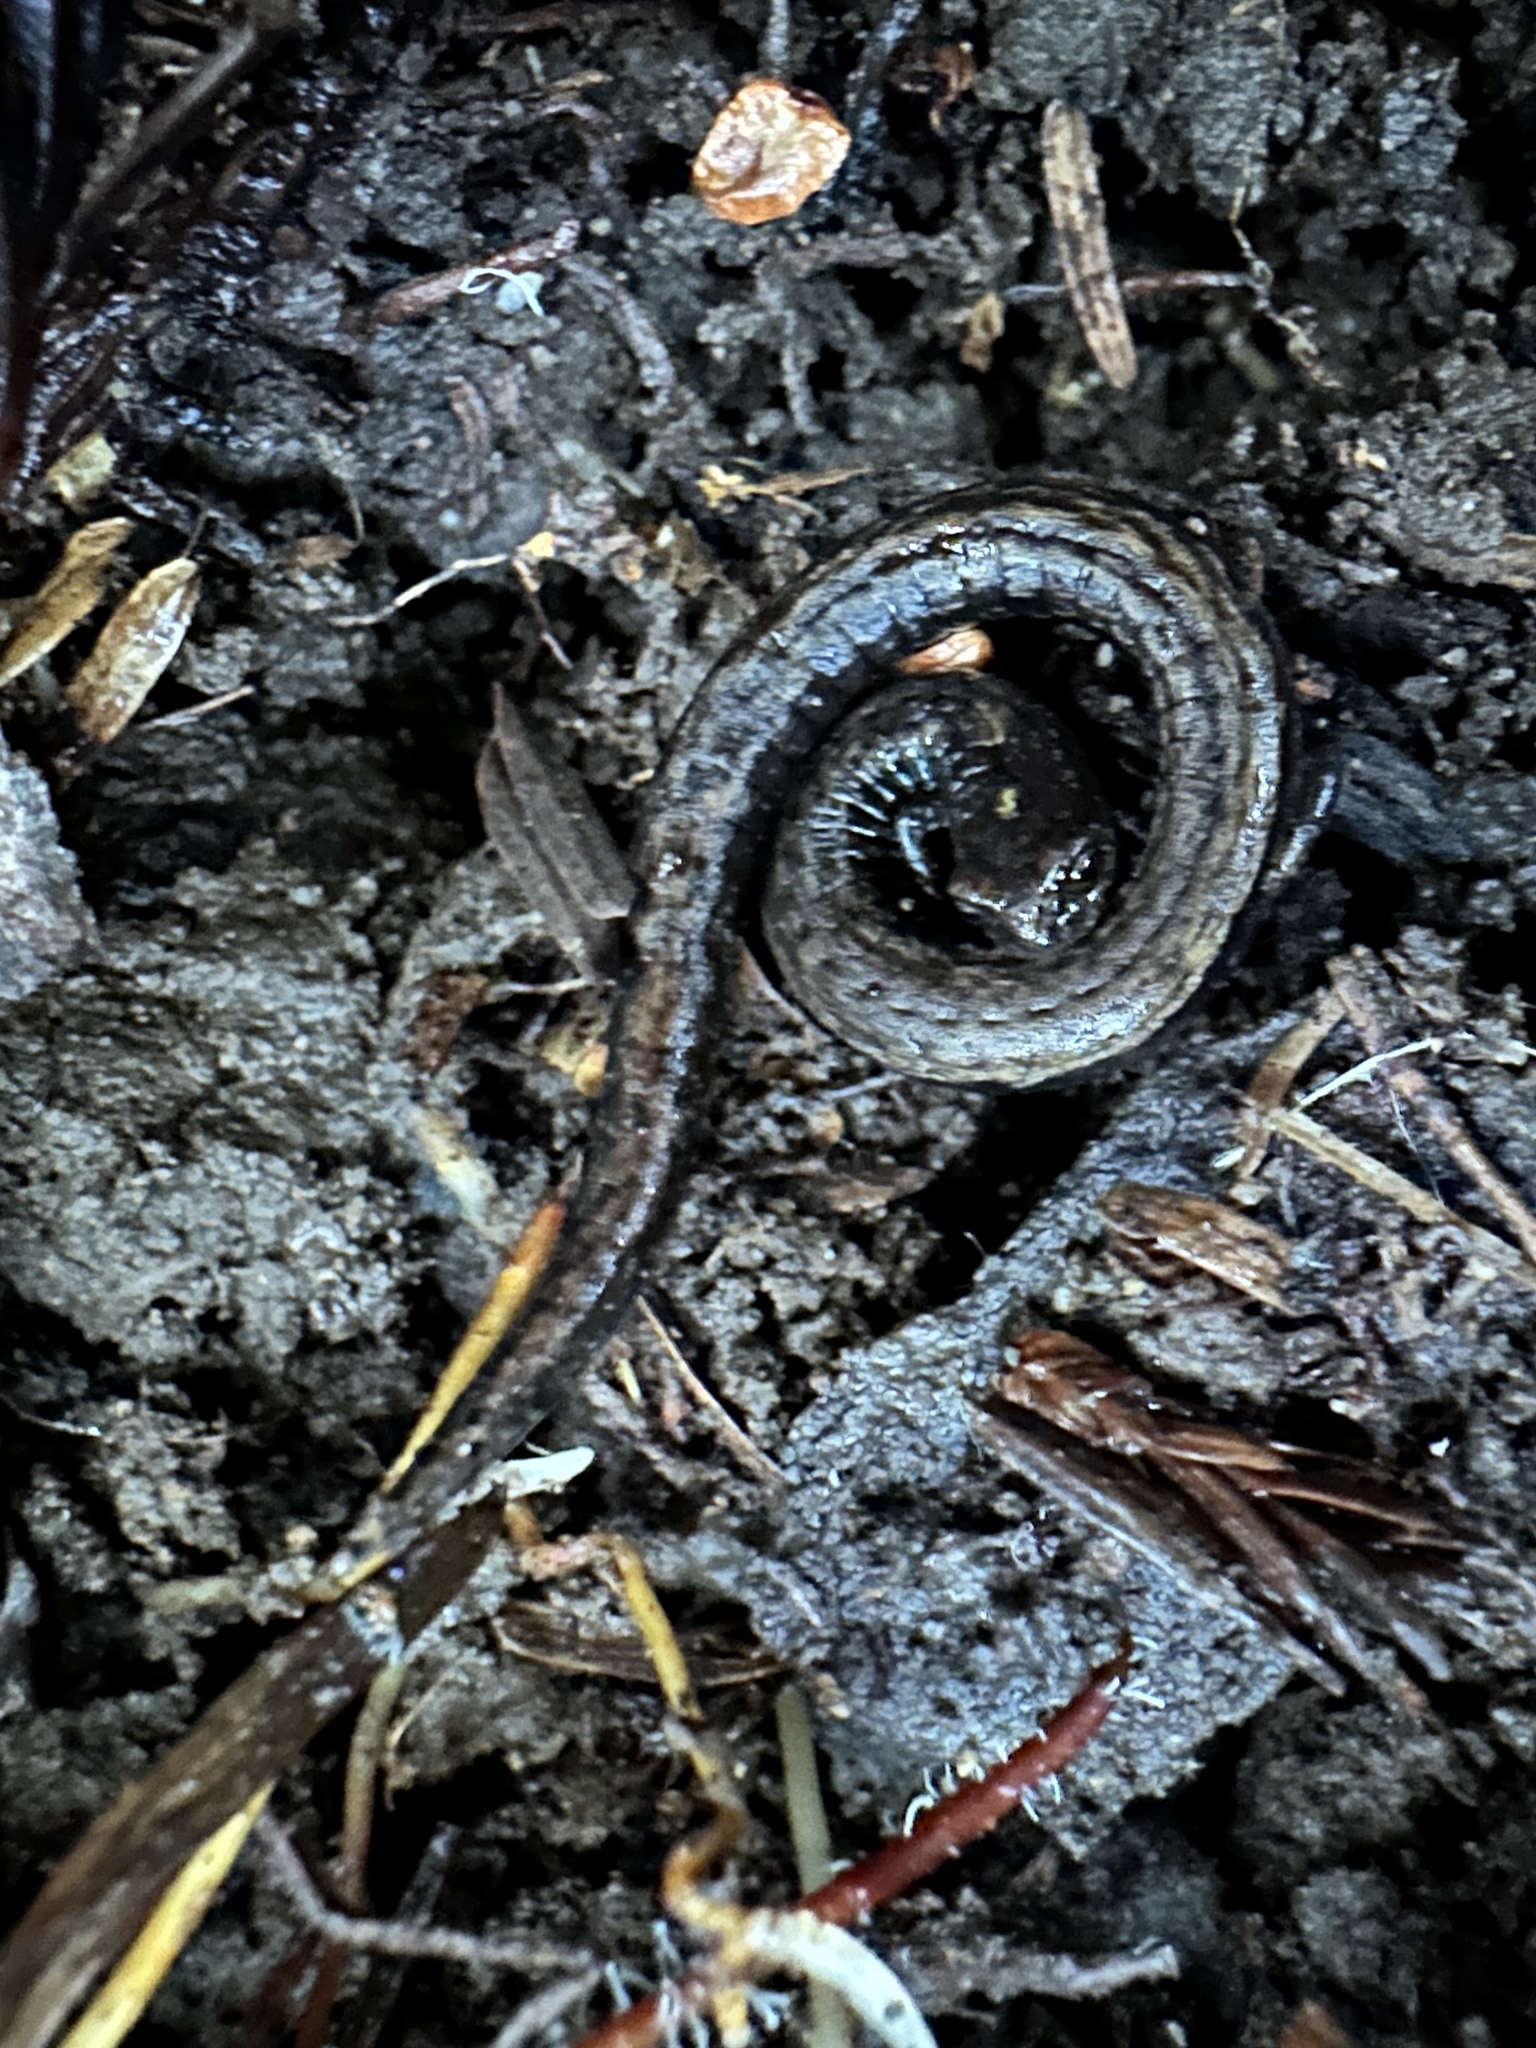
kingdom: Animalia
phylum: Chordata
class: Amphibia
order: Caudata
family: Plethodontidae
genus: Batrachoseps
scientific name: Batrachoseps attenuatus
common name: California slender salamander
